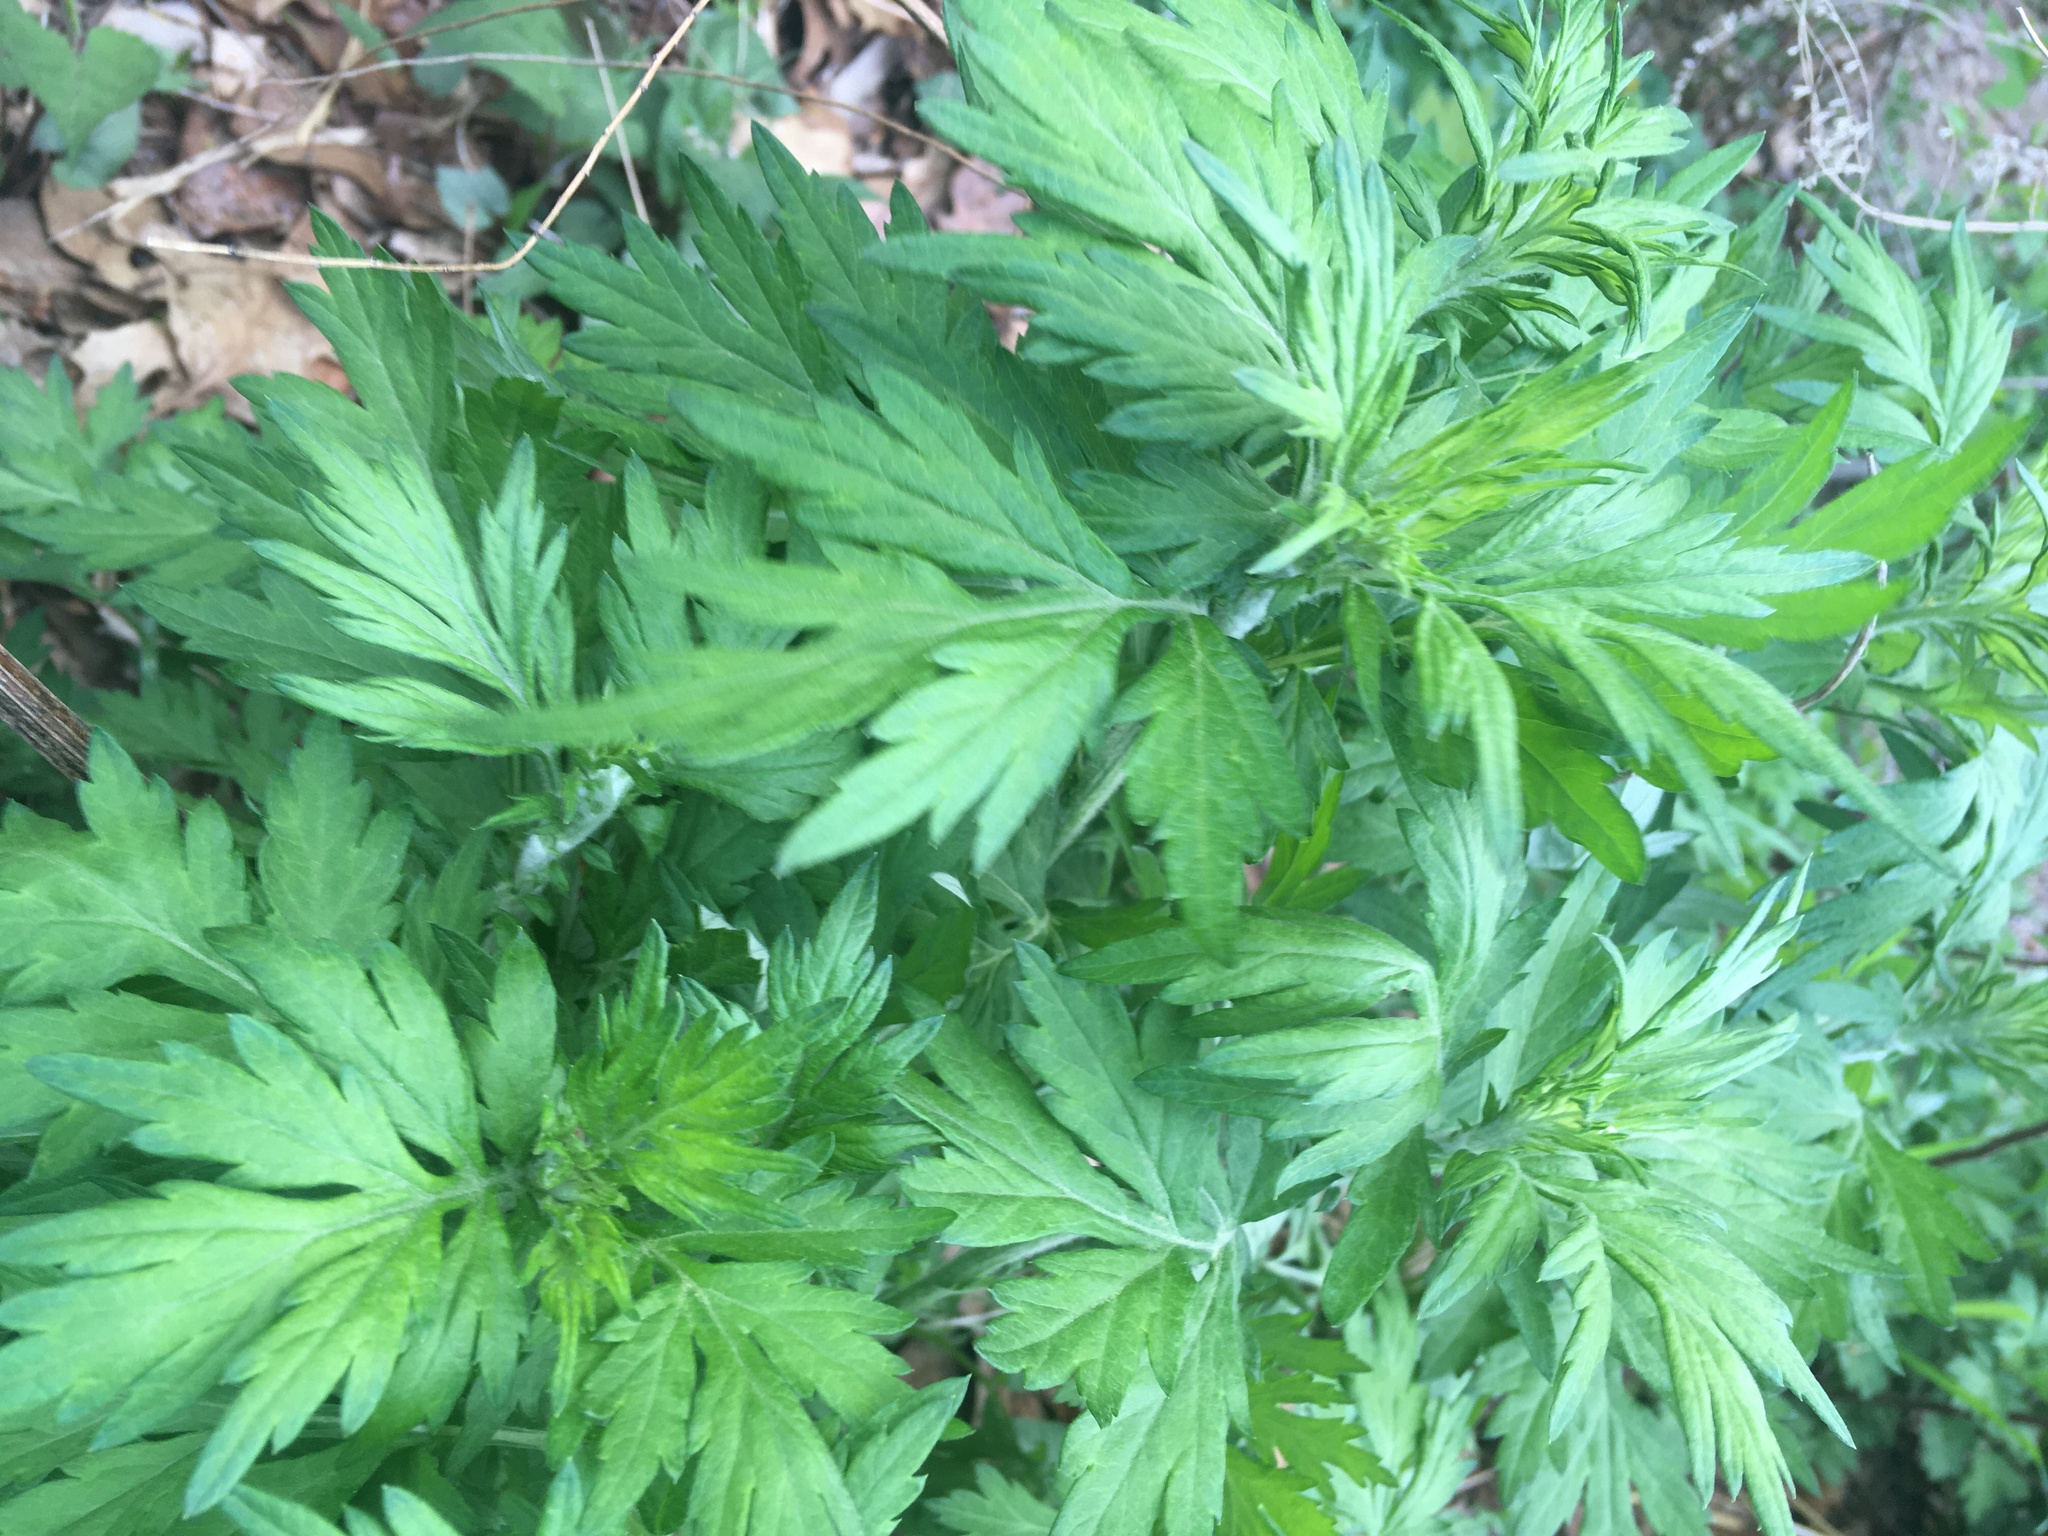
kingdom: Plantae
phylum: Tracheophyta
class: Magnoliopsida
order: Asterales
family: Asteraceae
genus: Artemisia
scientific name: Artemisia vulgaris
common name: Mugwort
